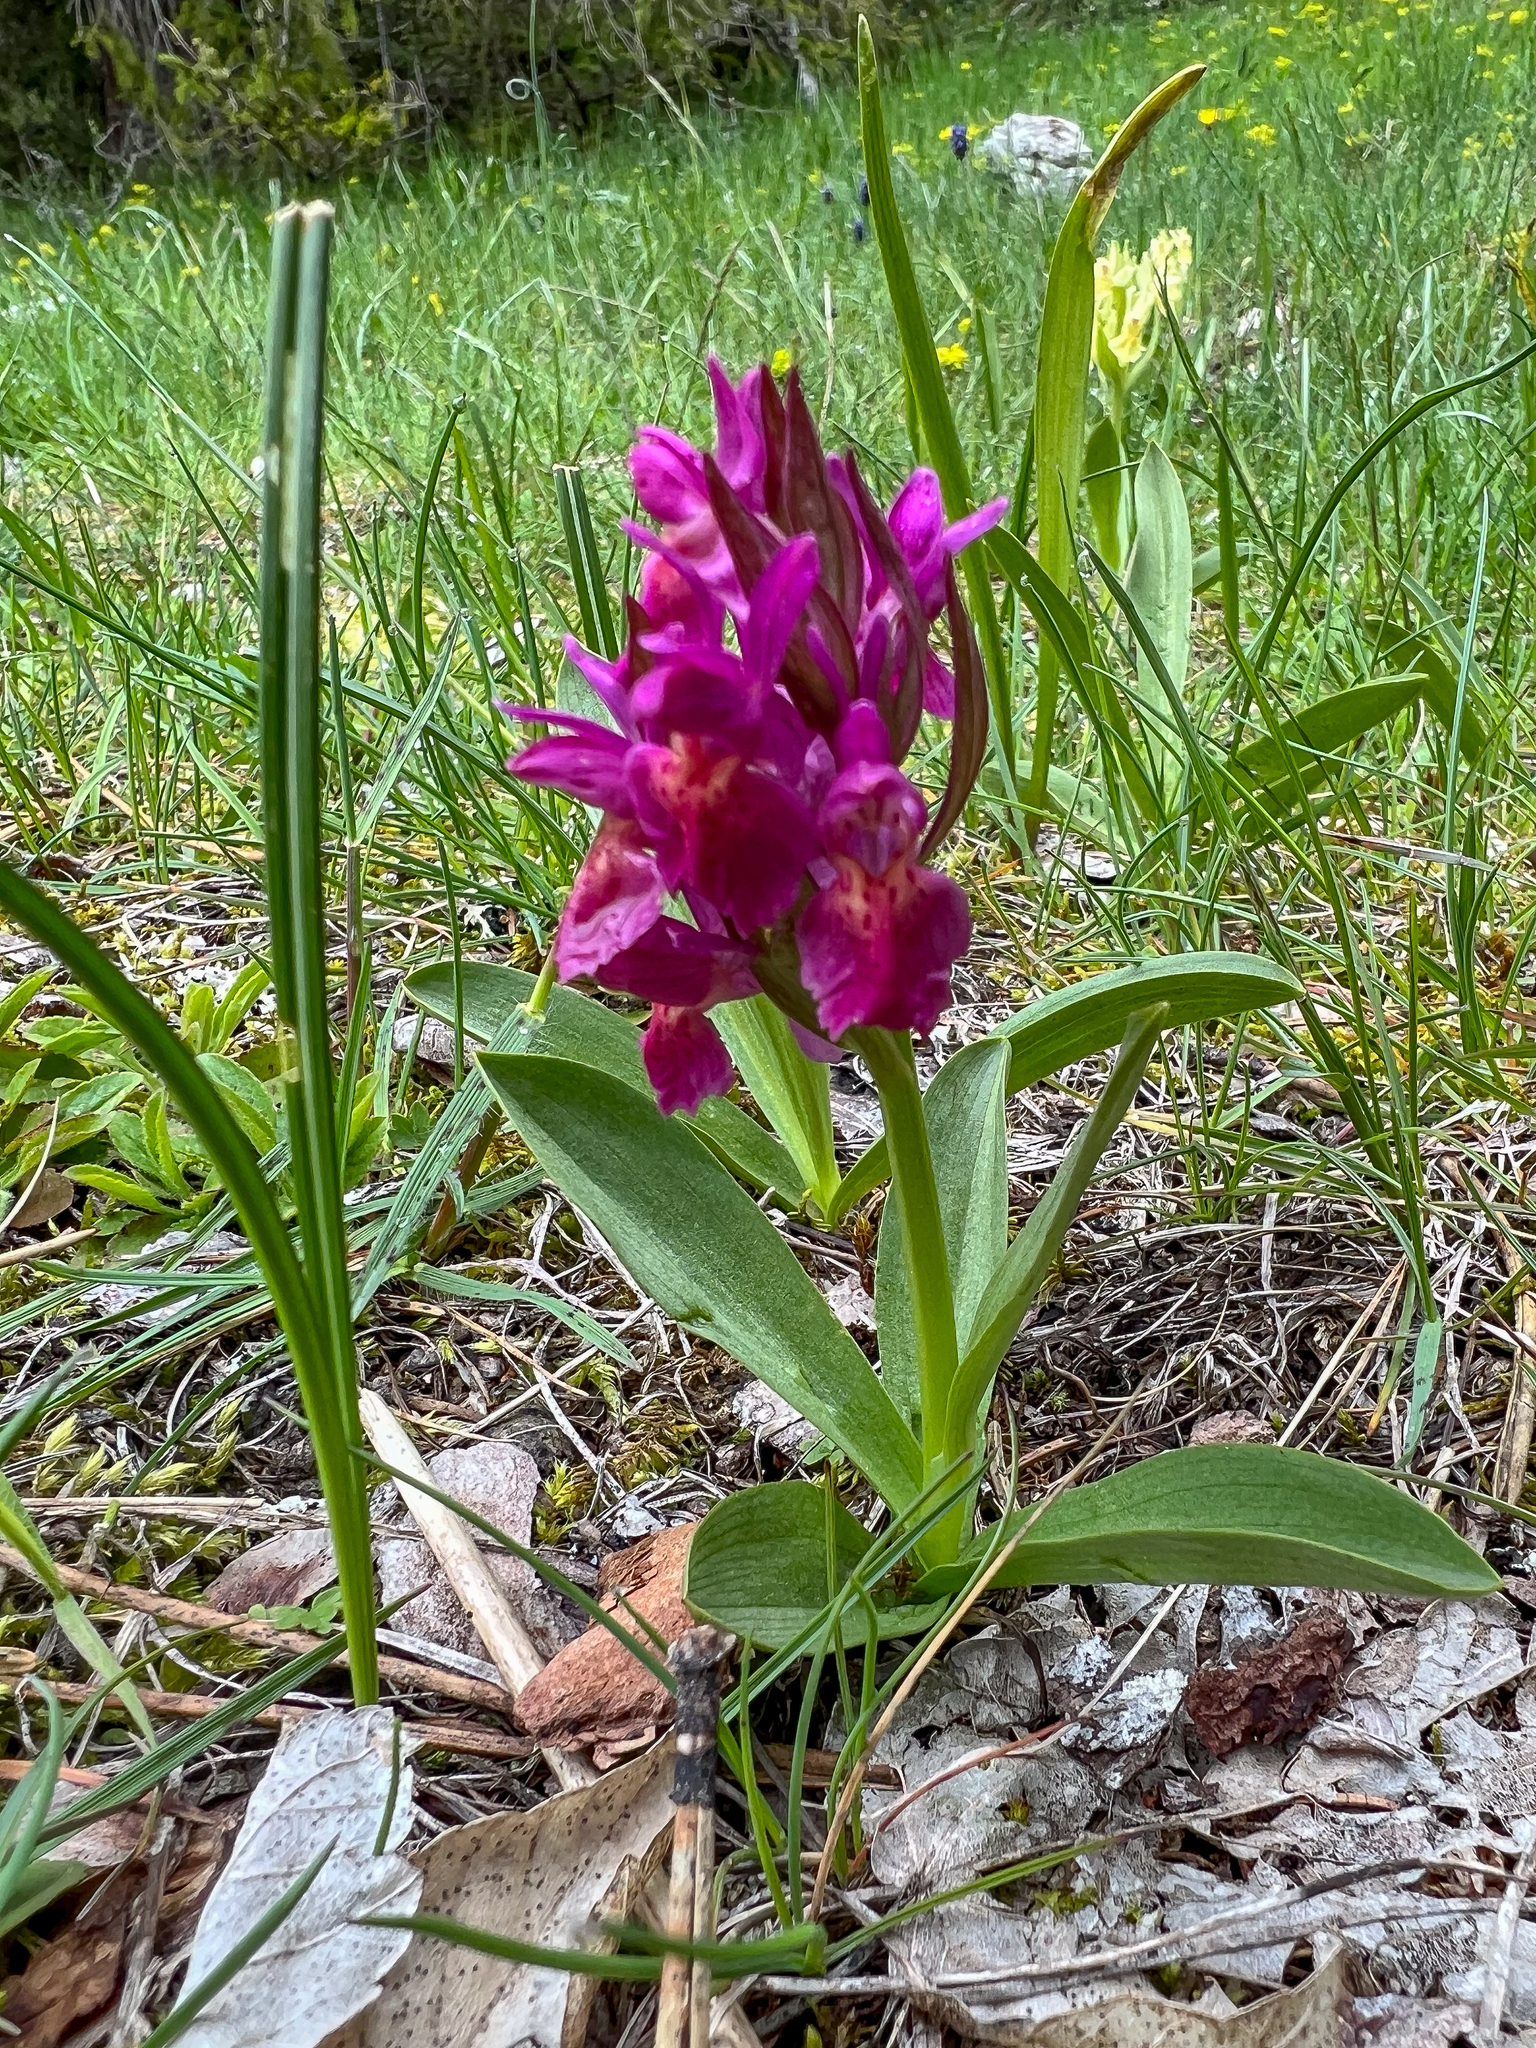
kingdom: Plantae
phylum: Tracheophyta
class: Liliopsida
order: Asparagales
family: Orchidaceae
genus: Dactylorhiza
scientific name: Dactylorhiza sambucina
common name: Elder-flowered orchid
